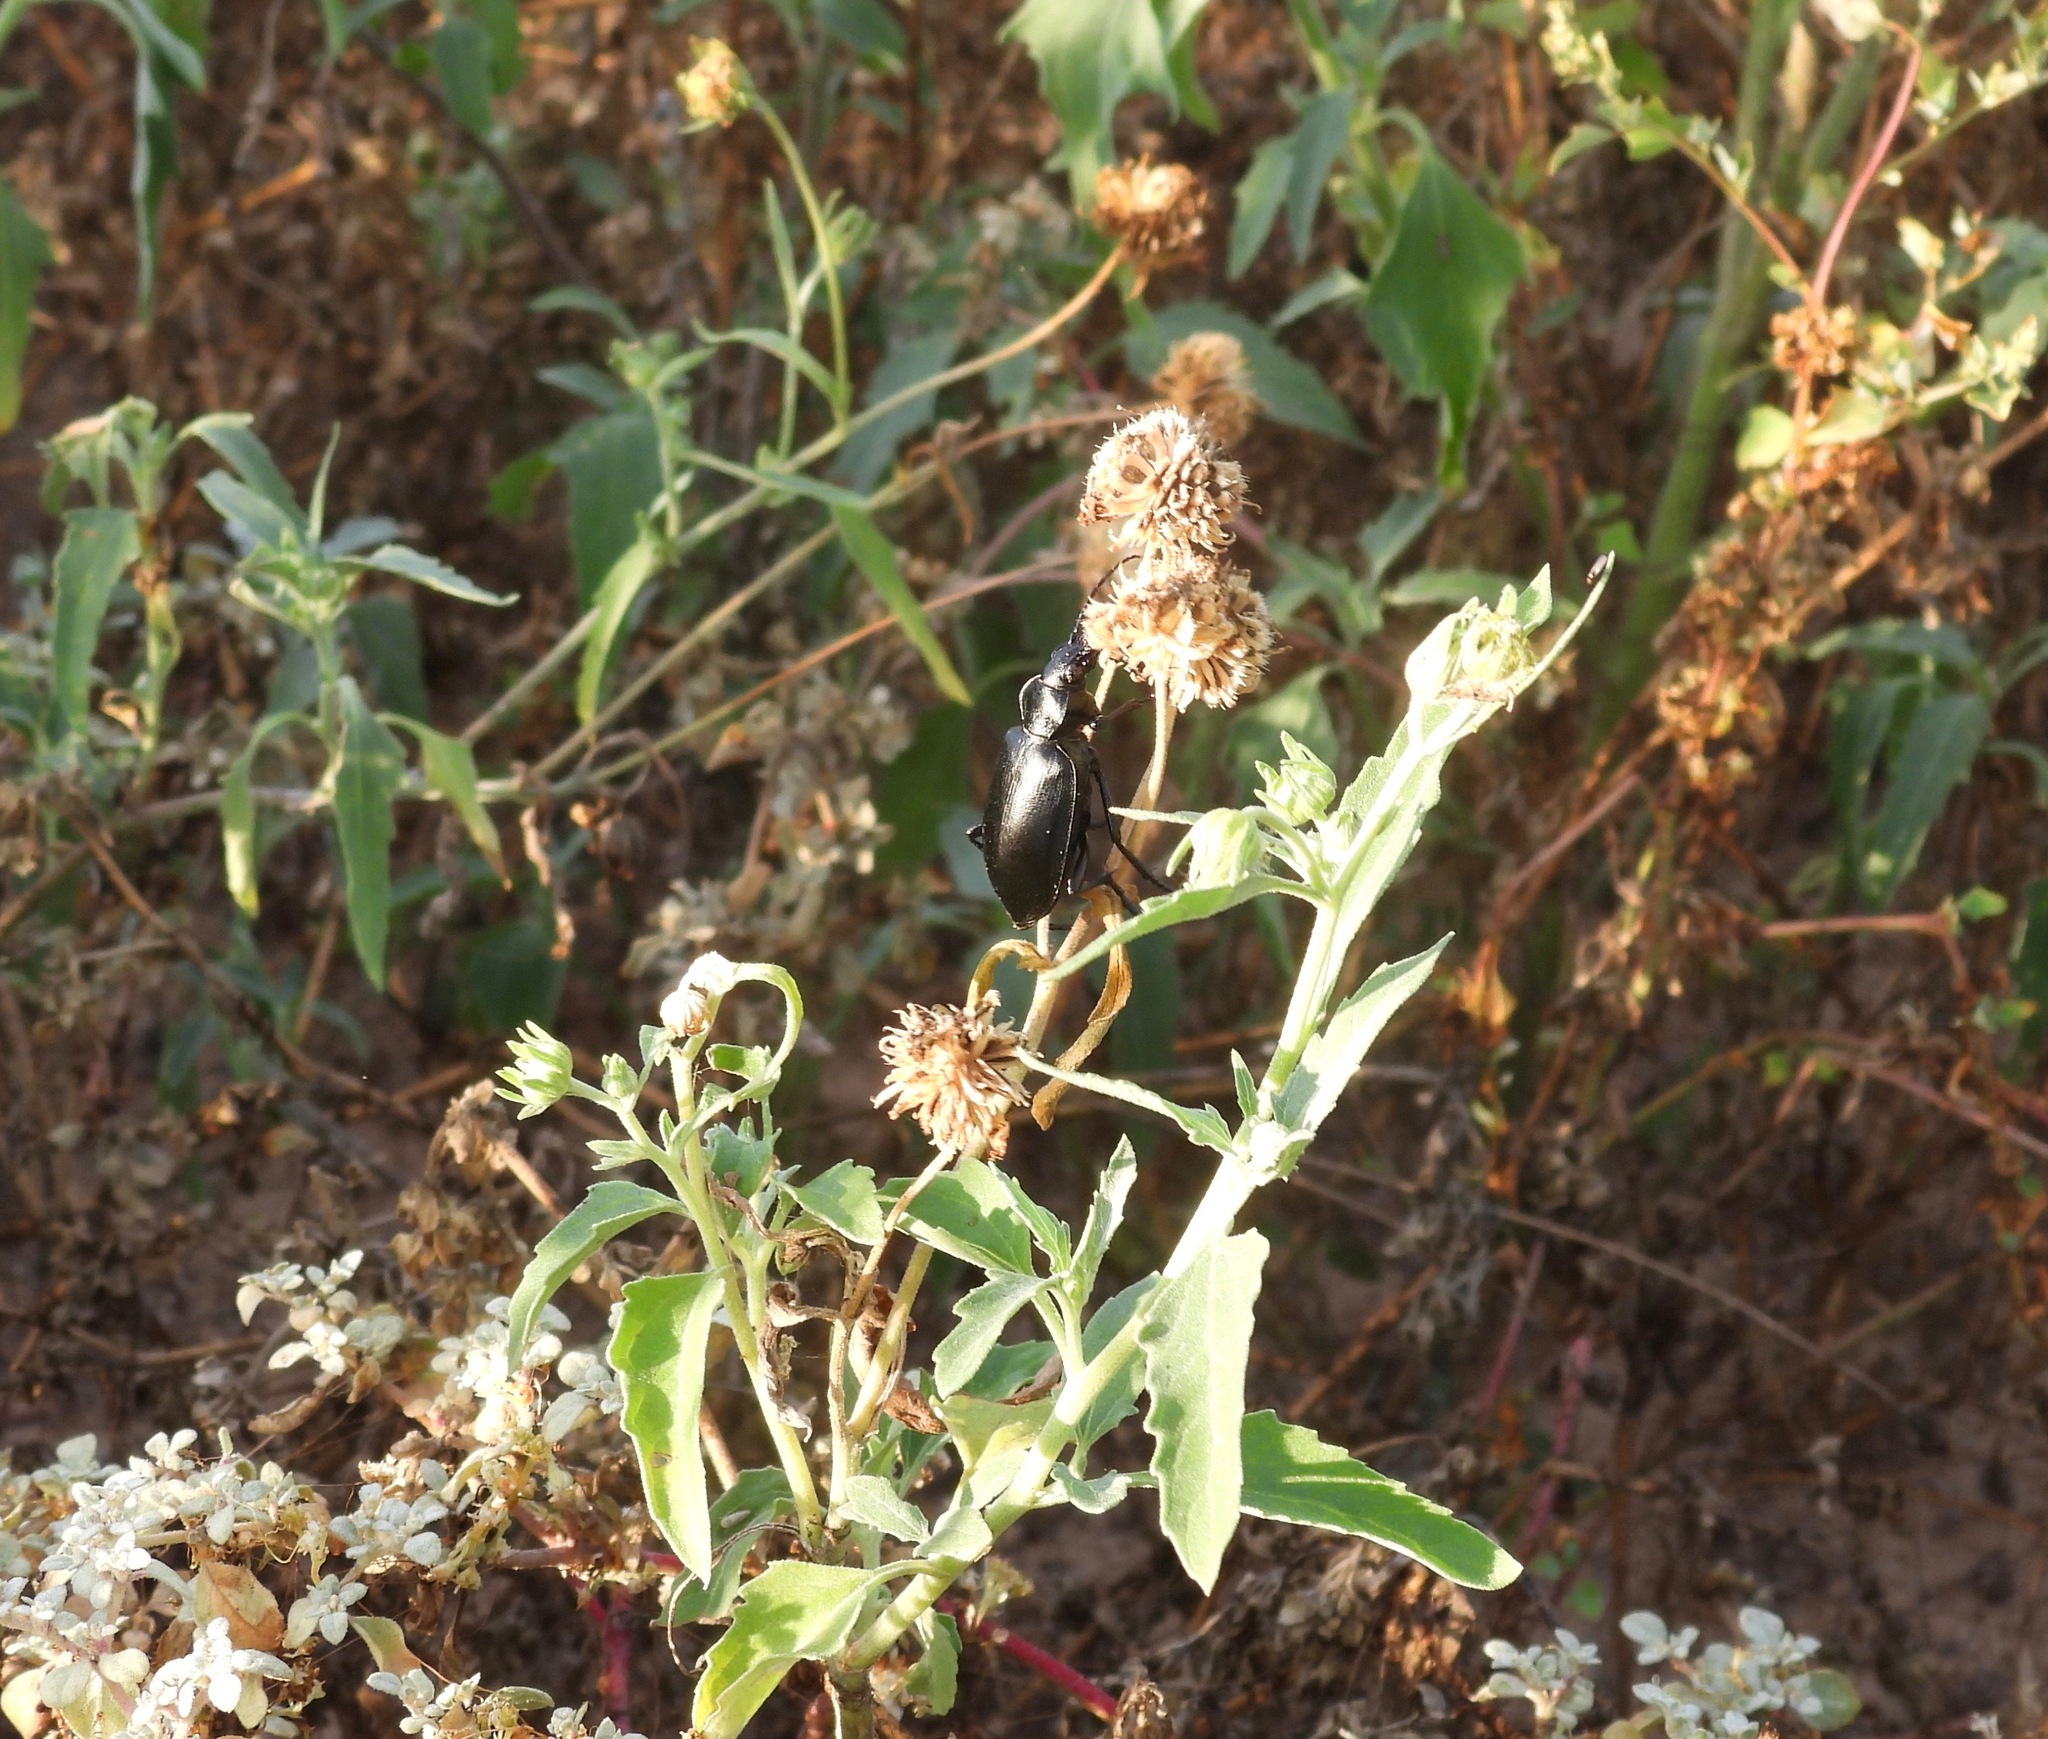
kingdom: Animalia
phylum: Arthropoda
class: Insecta
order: Coleoptera
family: Carabidae
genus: Calosoma
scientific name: Calosoma peregrinator
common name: Ground beetle
